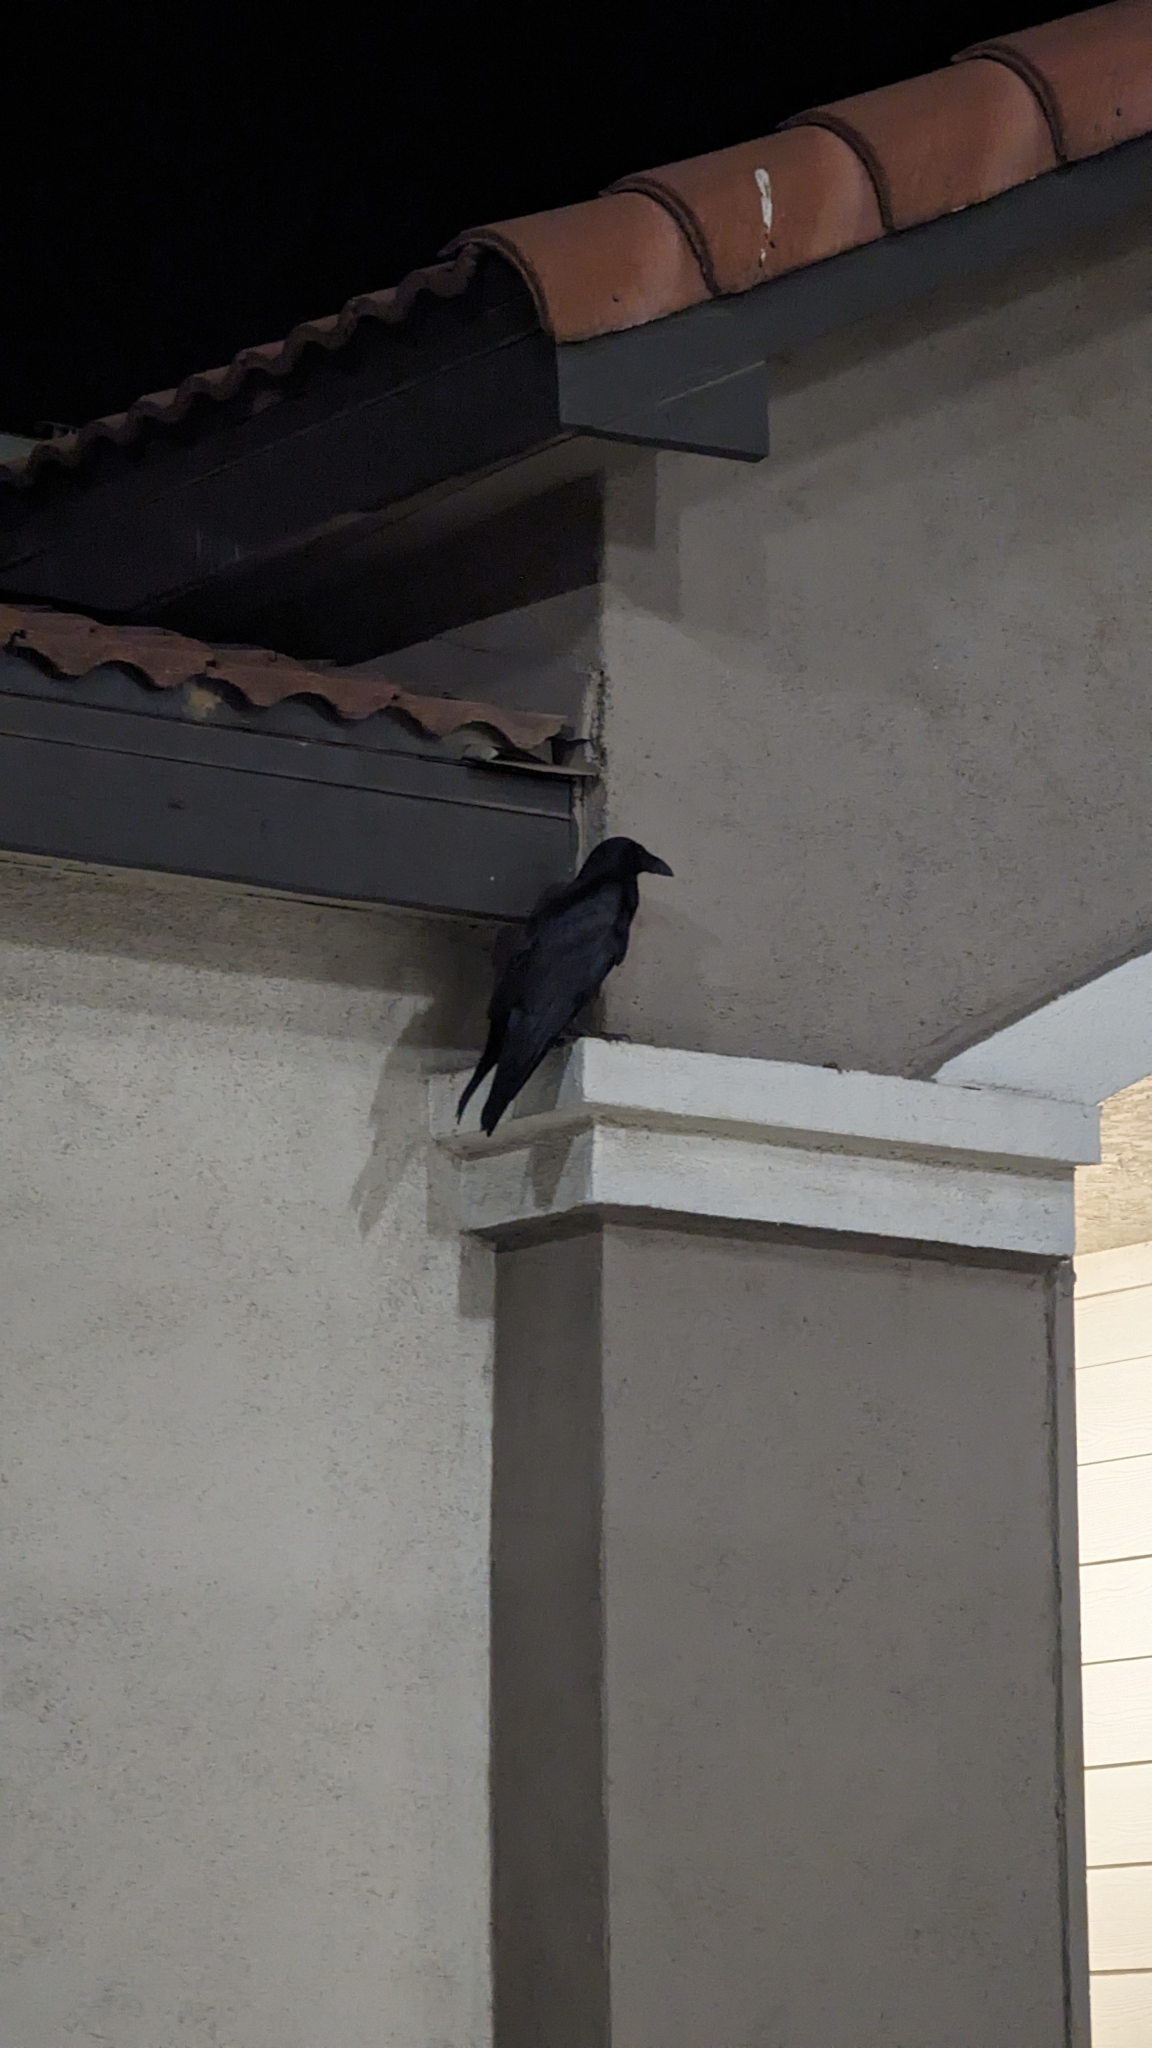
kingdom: Animalia
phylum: Chordata
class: Aves
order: Passeriformes
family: Corvidae
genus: Corvus
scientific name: Corvus brachyrhynchos
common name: American crow
